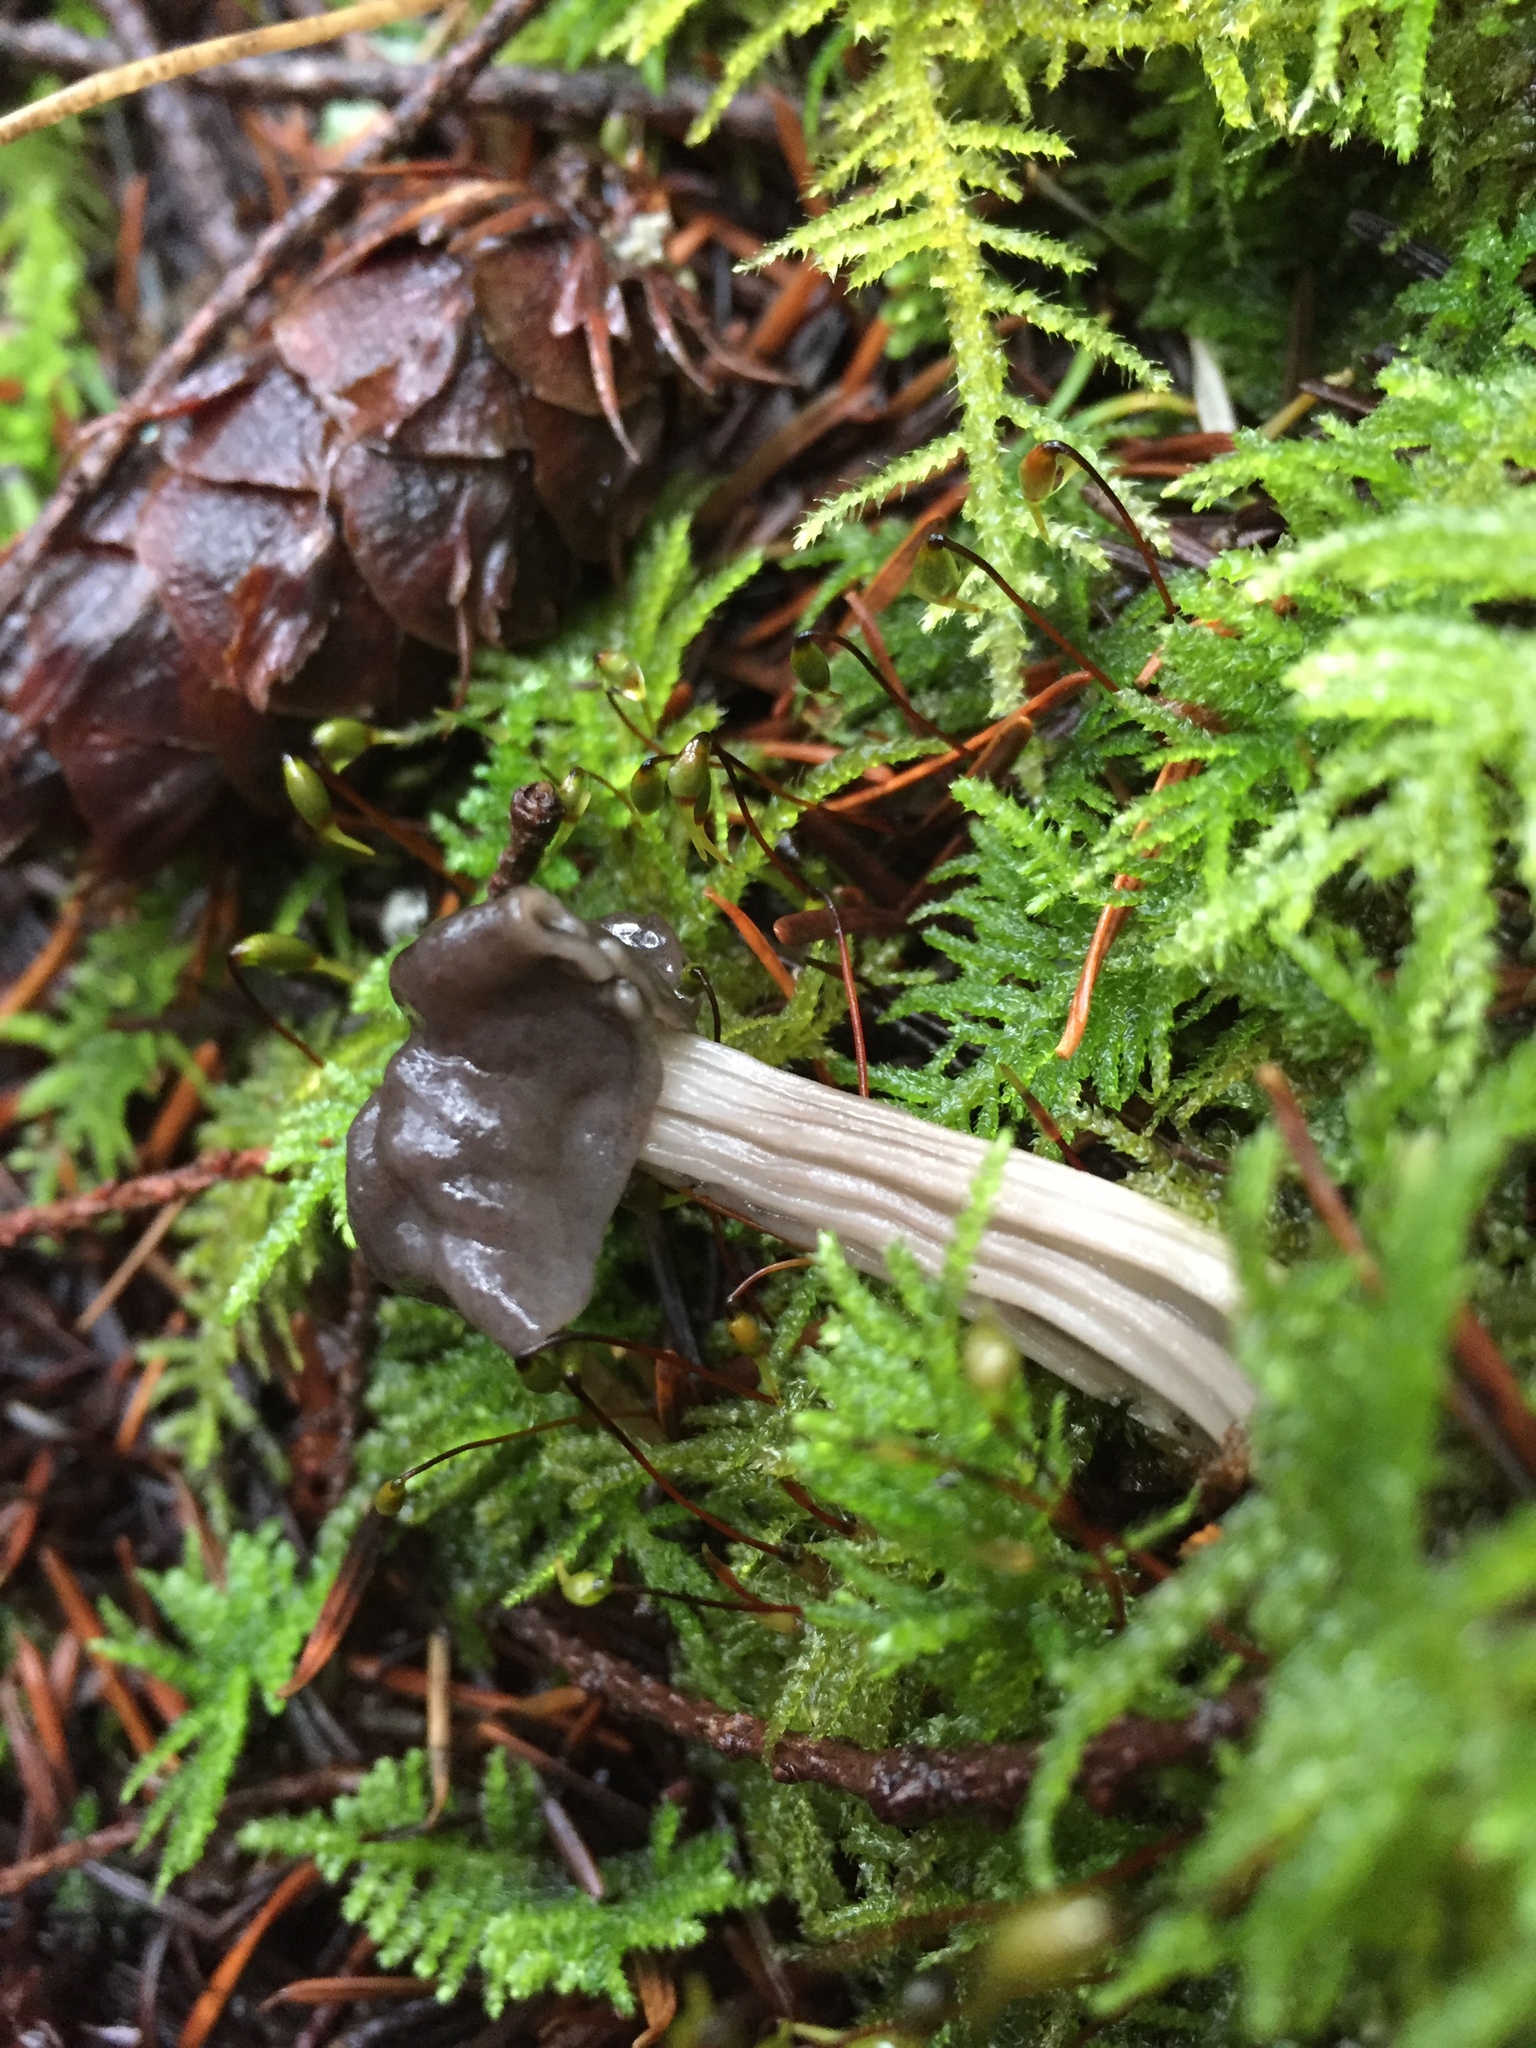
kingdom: Fungi
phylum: Ascomycota
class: Pezizomycetes
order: Pezizales
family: Helvellaceae
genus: Helvella
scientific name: Helvella vespertina
